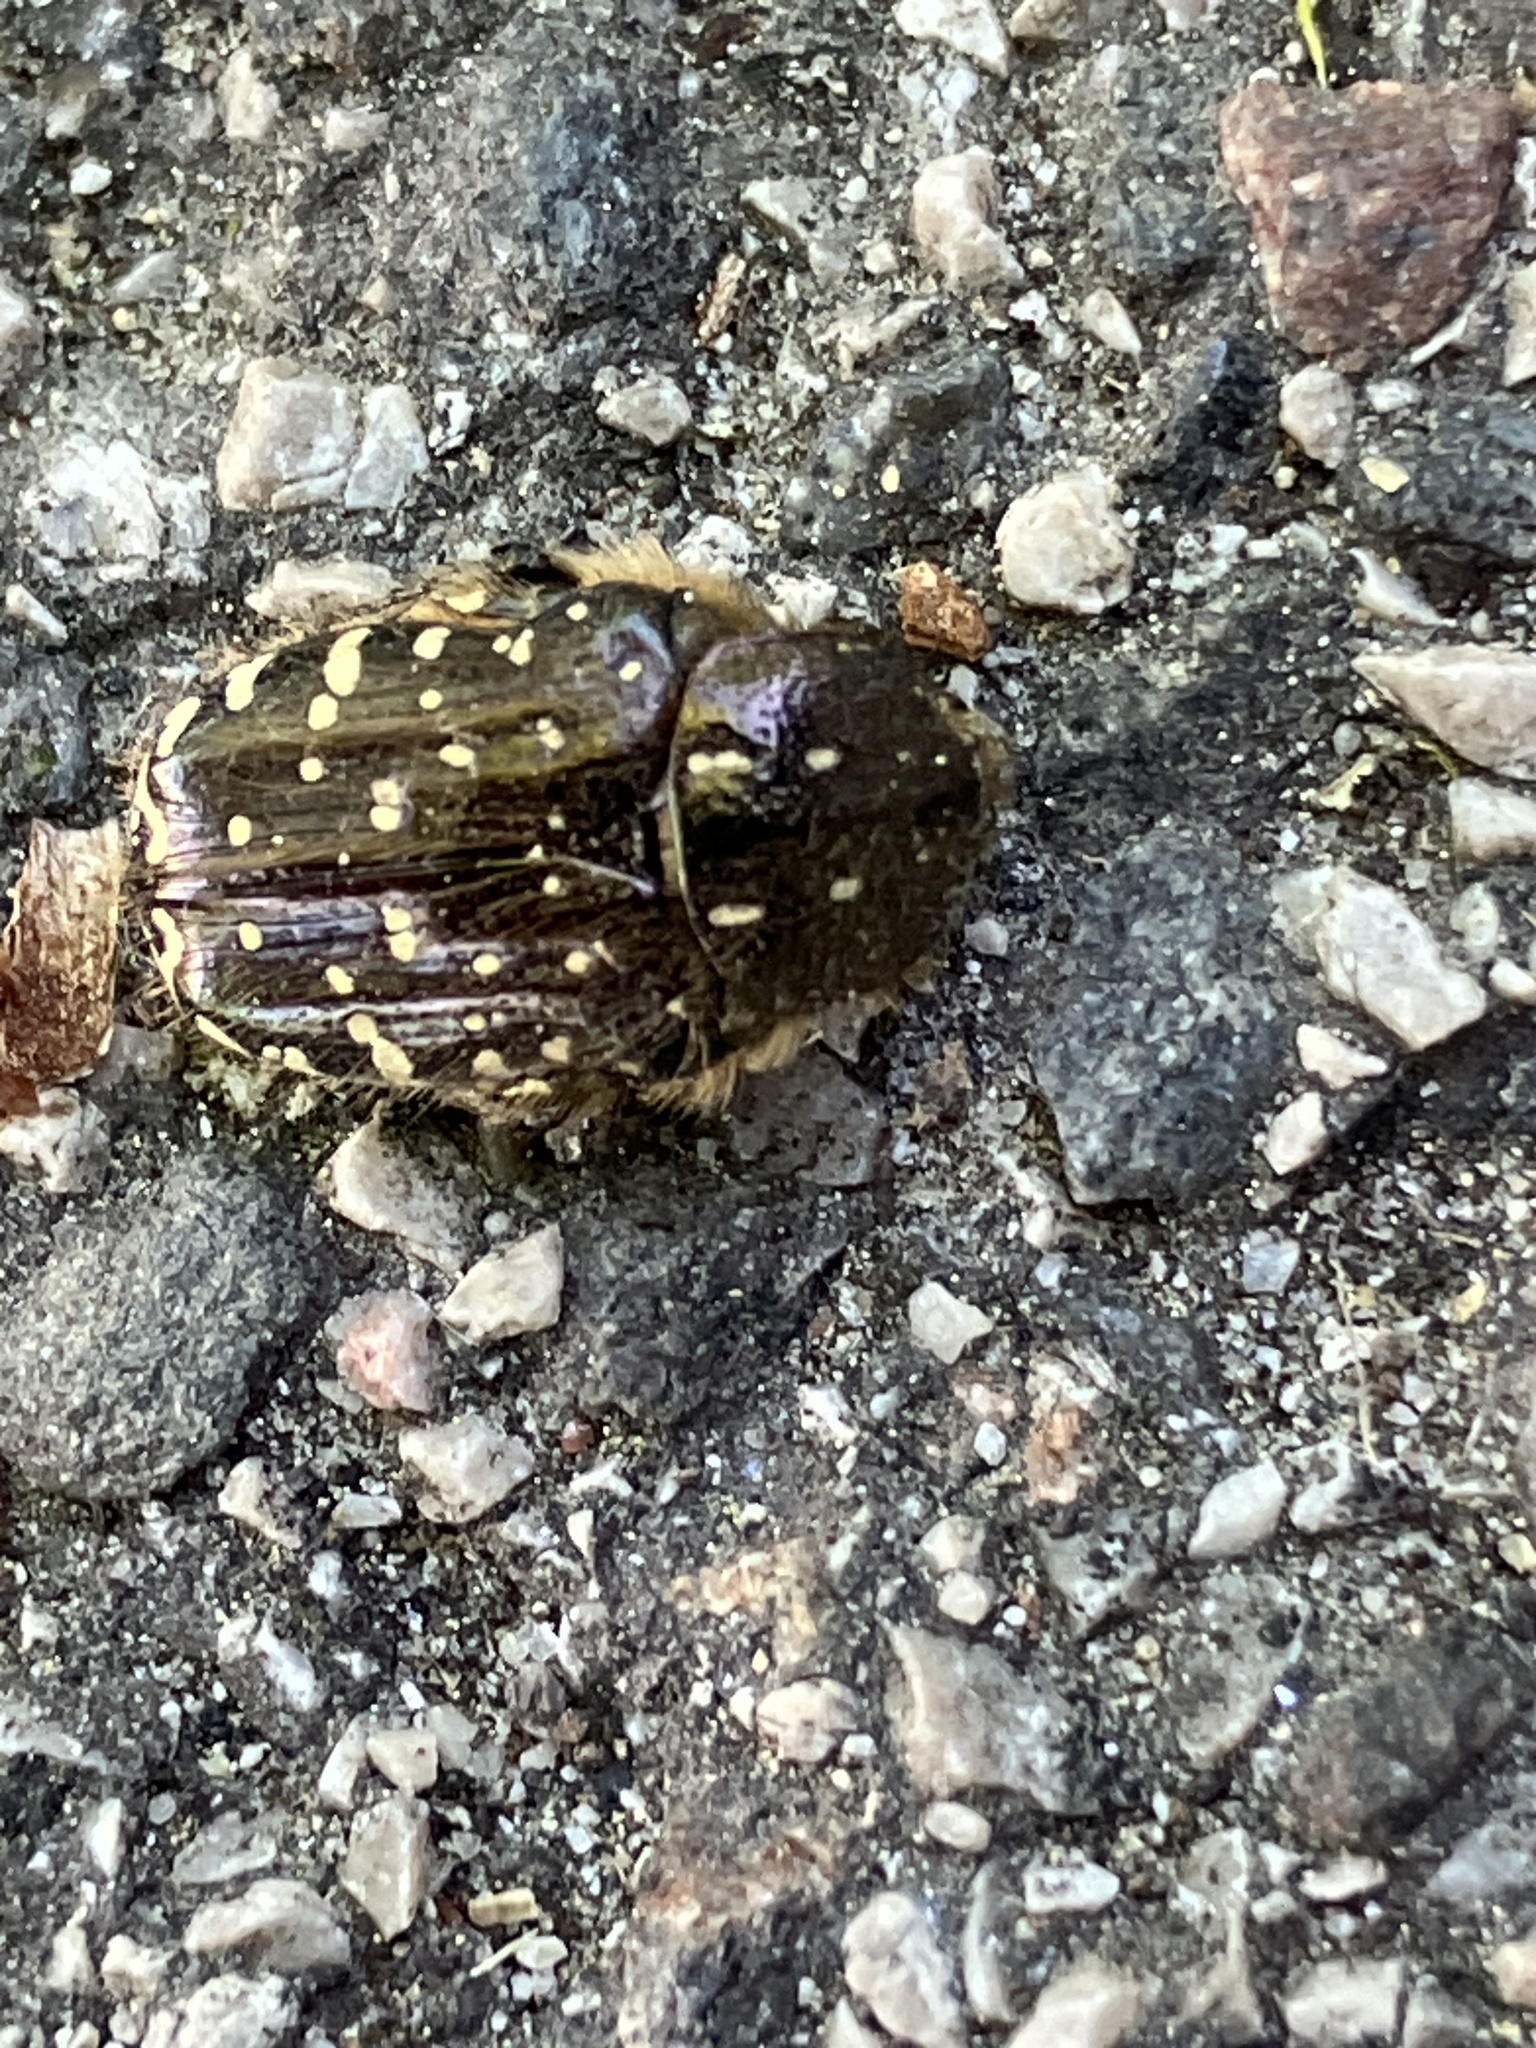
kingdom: Animalia
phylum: Arthropoda
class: Insecta
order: Coleoptera
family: Scarabaeidae
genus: Oxythyrea
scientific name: Oxythyrea funesta
